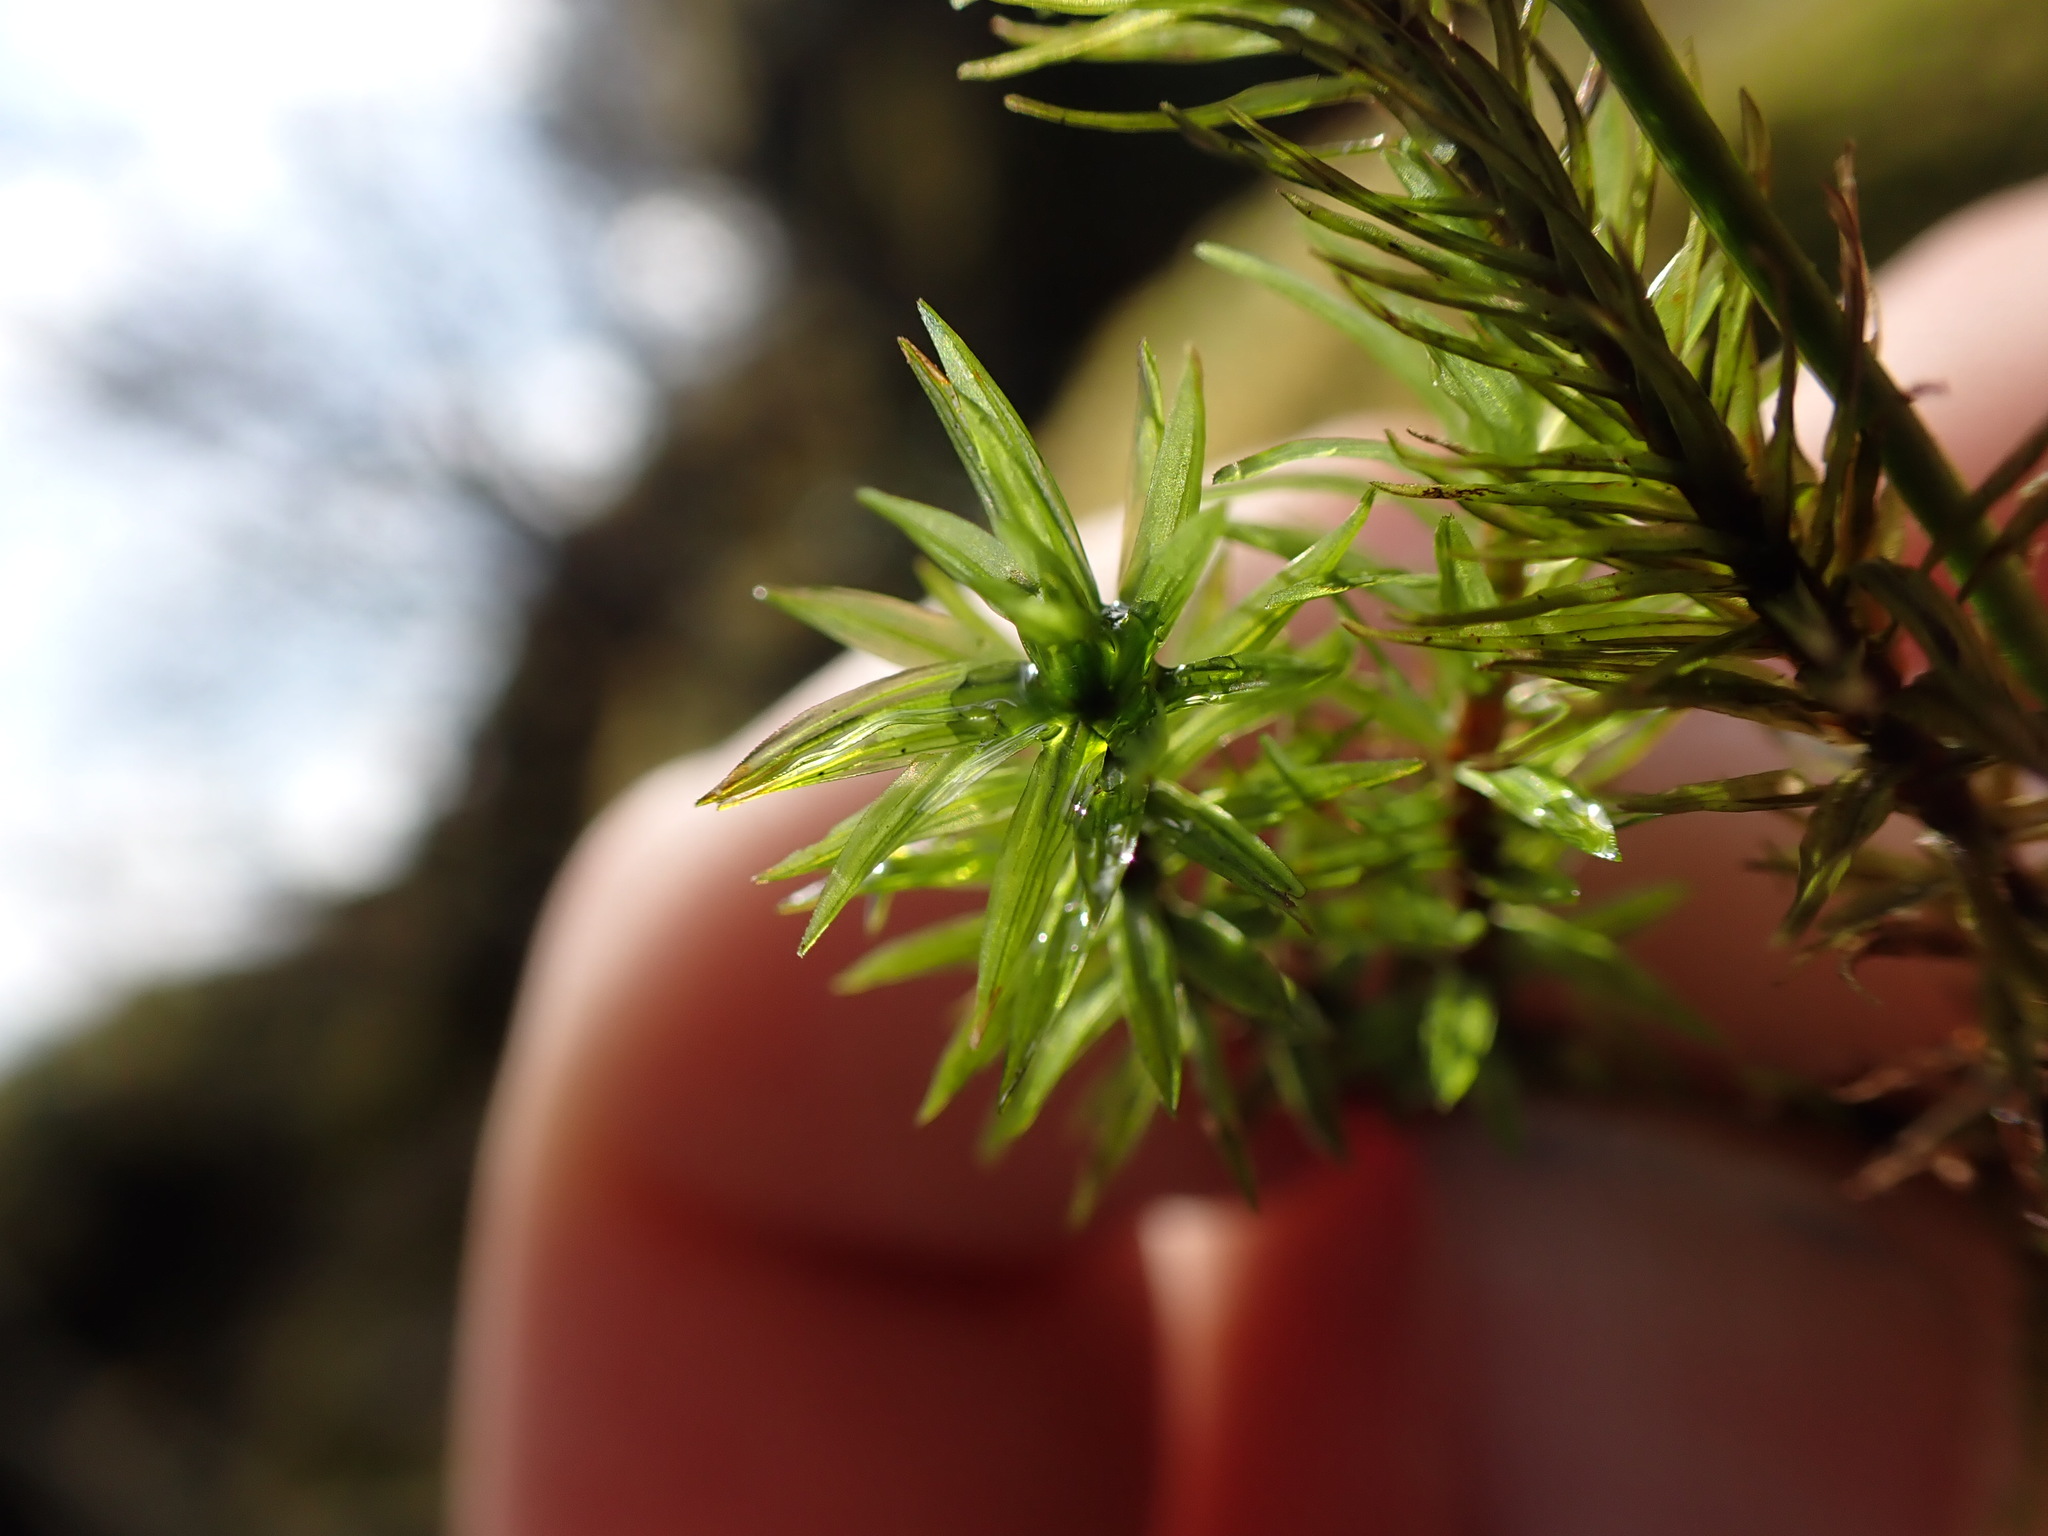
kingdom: Plantae
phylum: Bryophyta
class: Bryopsida
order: Timmiales
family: Timmiaceae
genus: Timmia
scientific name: Timmia austriaca
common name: Austrian timmia
